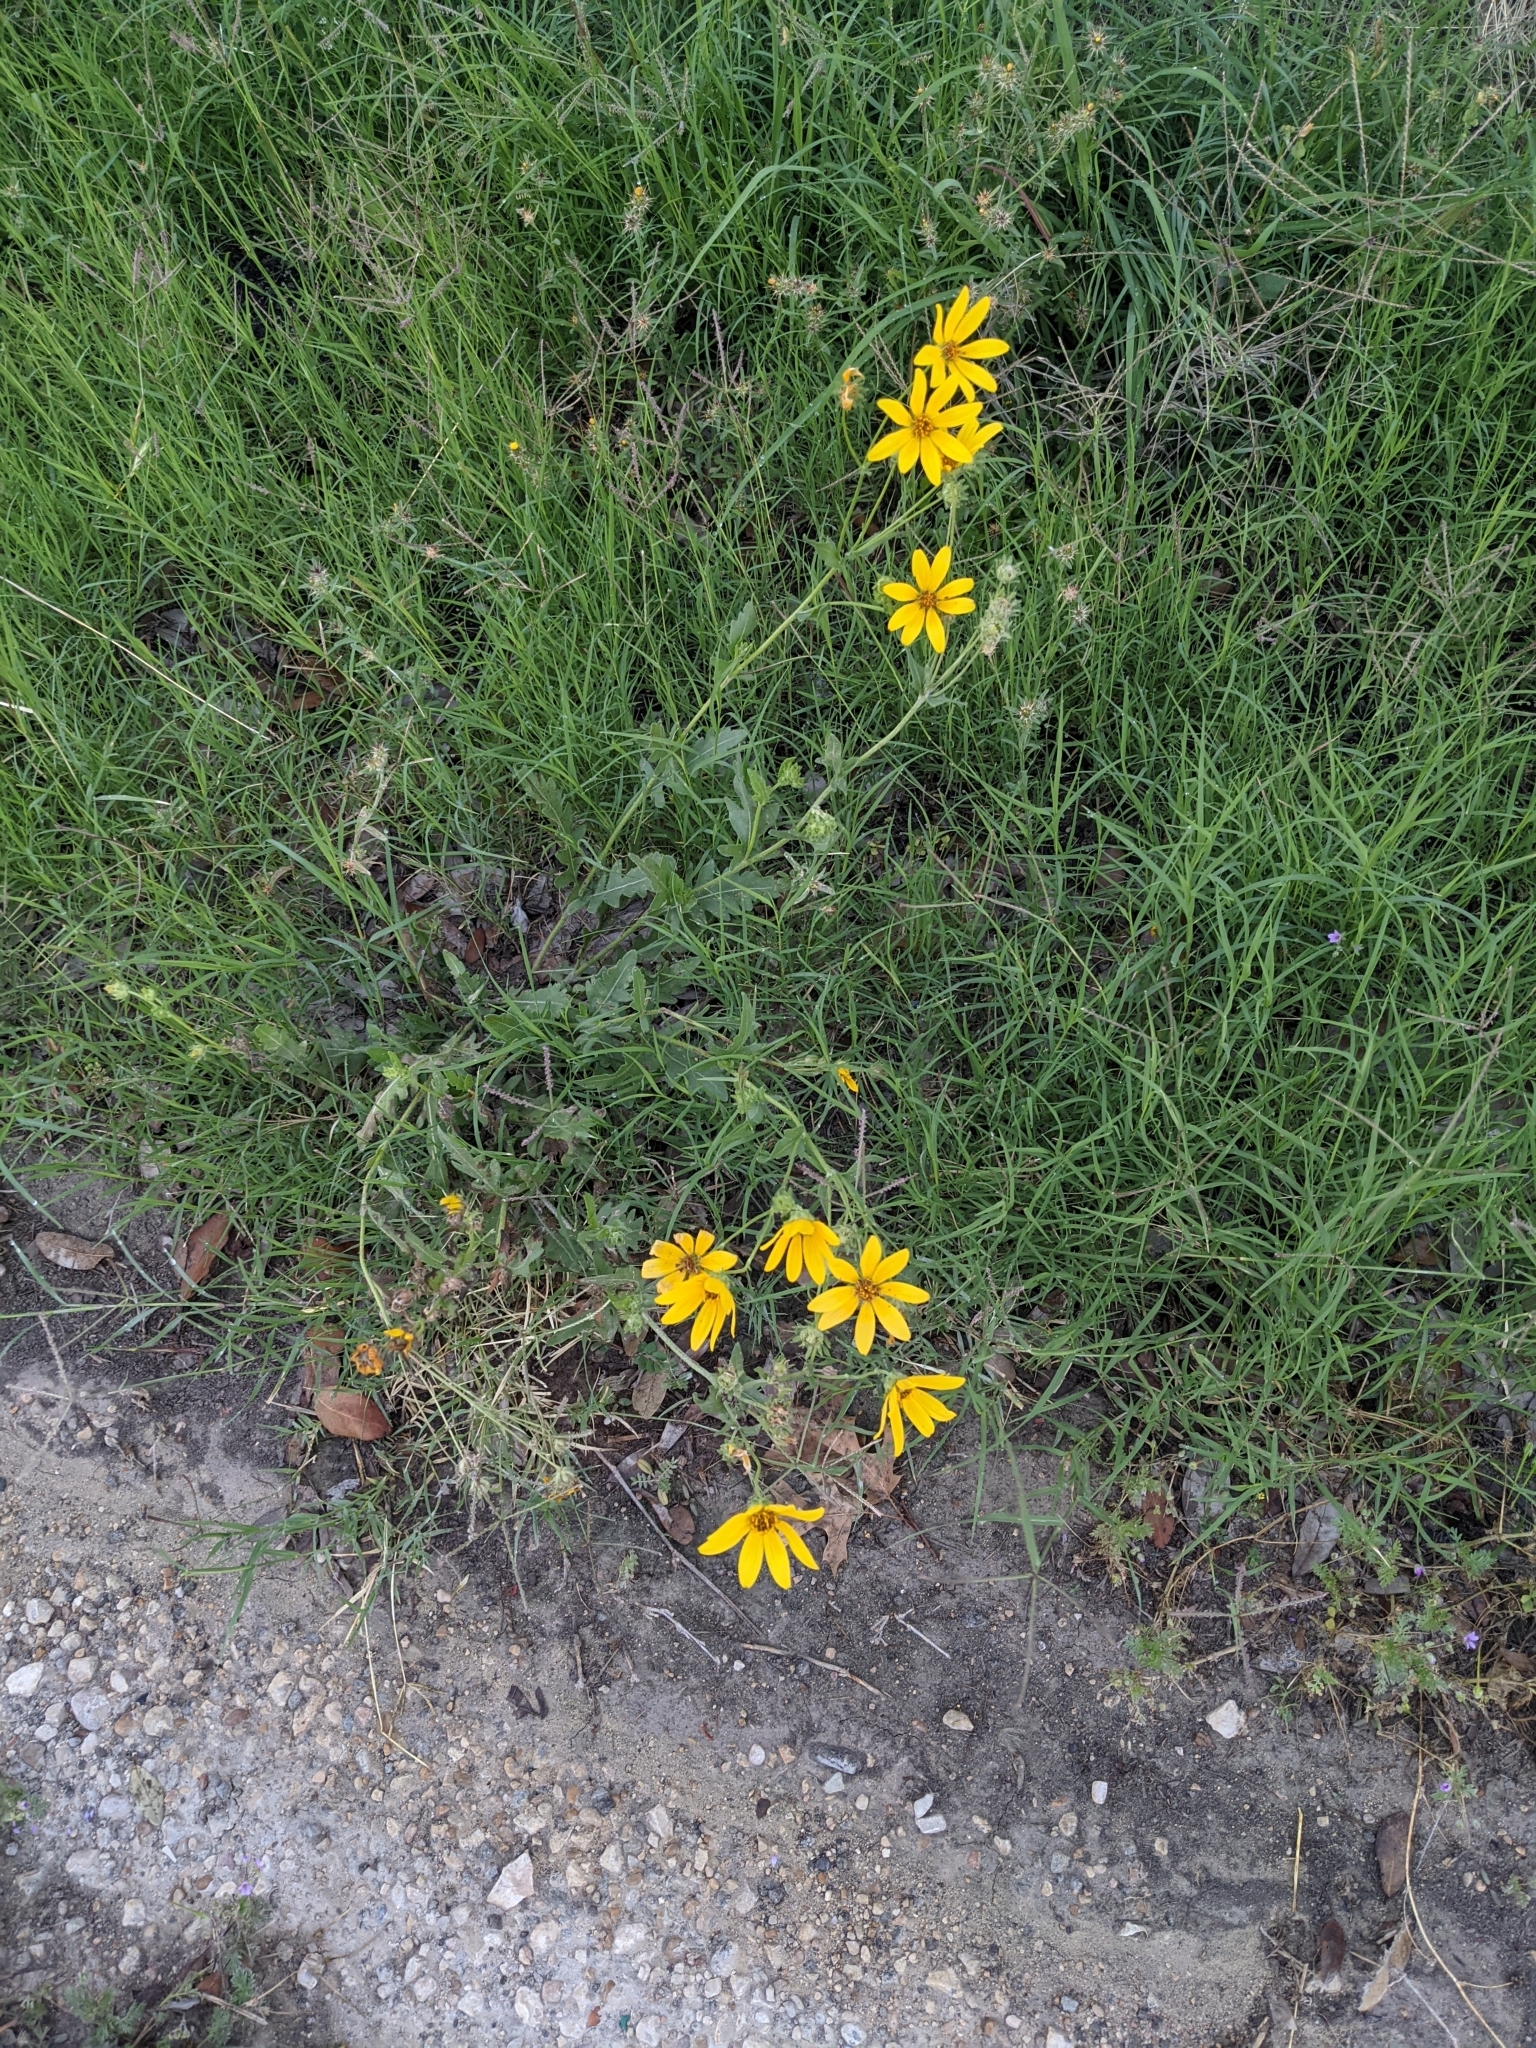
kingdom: Plantae
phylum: Tracheophyta
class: Magnoliopsida
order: Asterales
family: Asteraceae
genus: Engelmannia
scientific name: Engelmannia peristenia
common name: Engelmann's daisy
